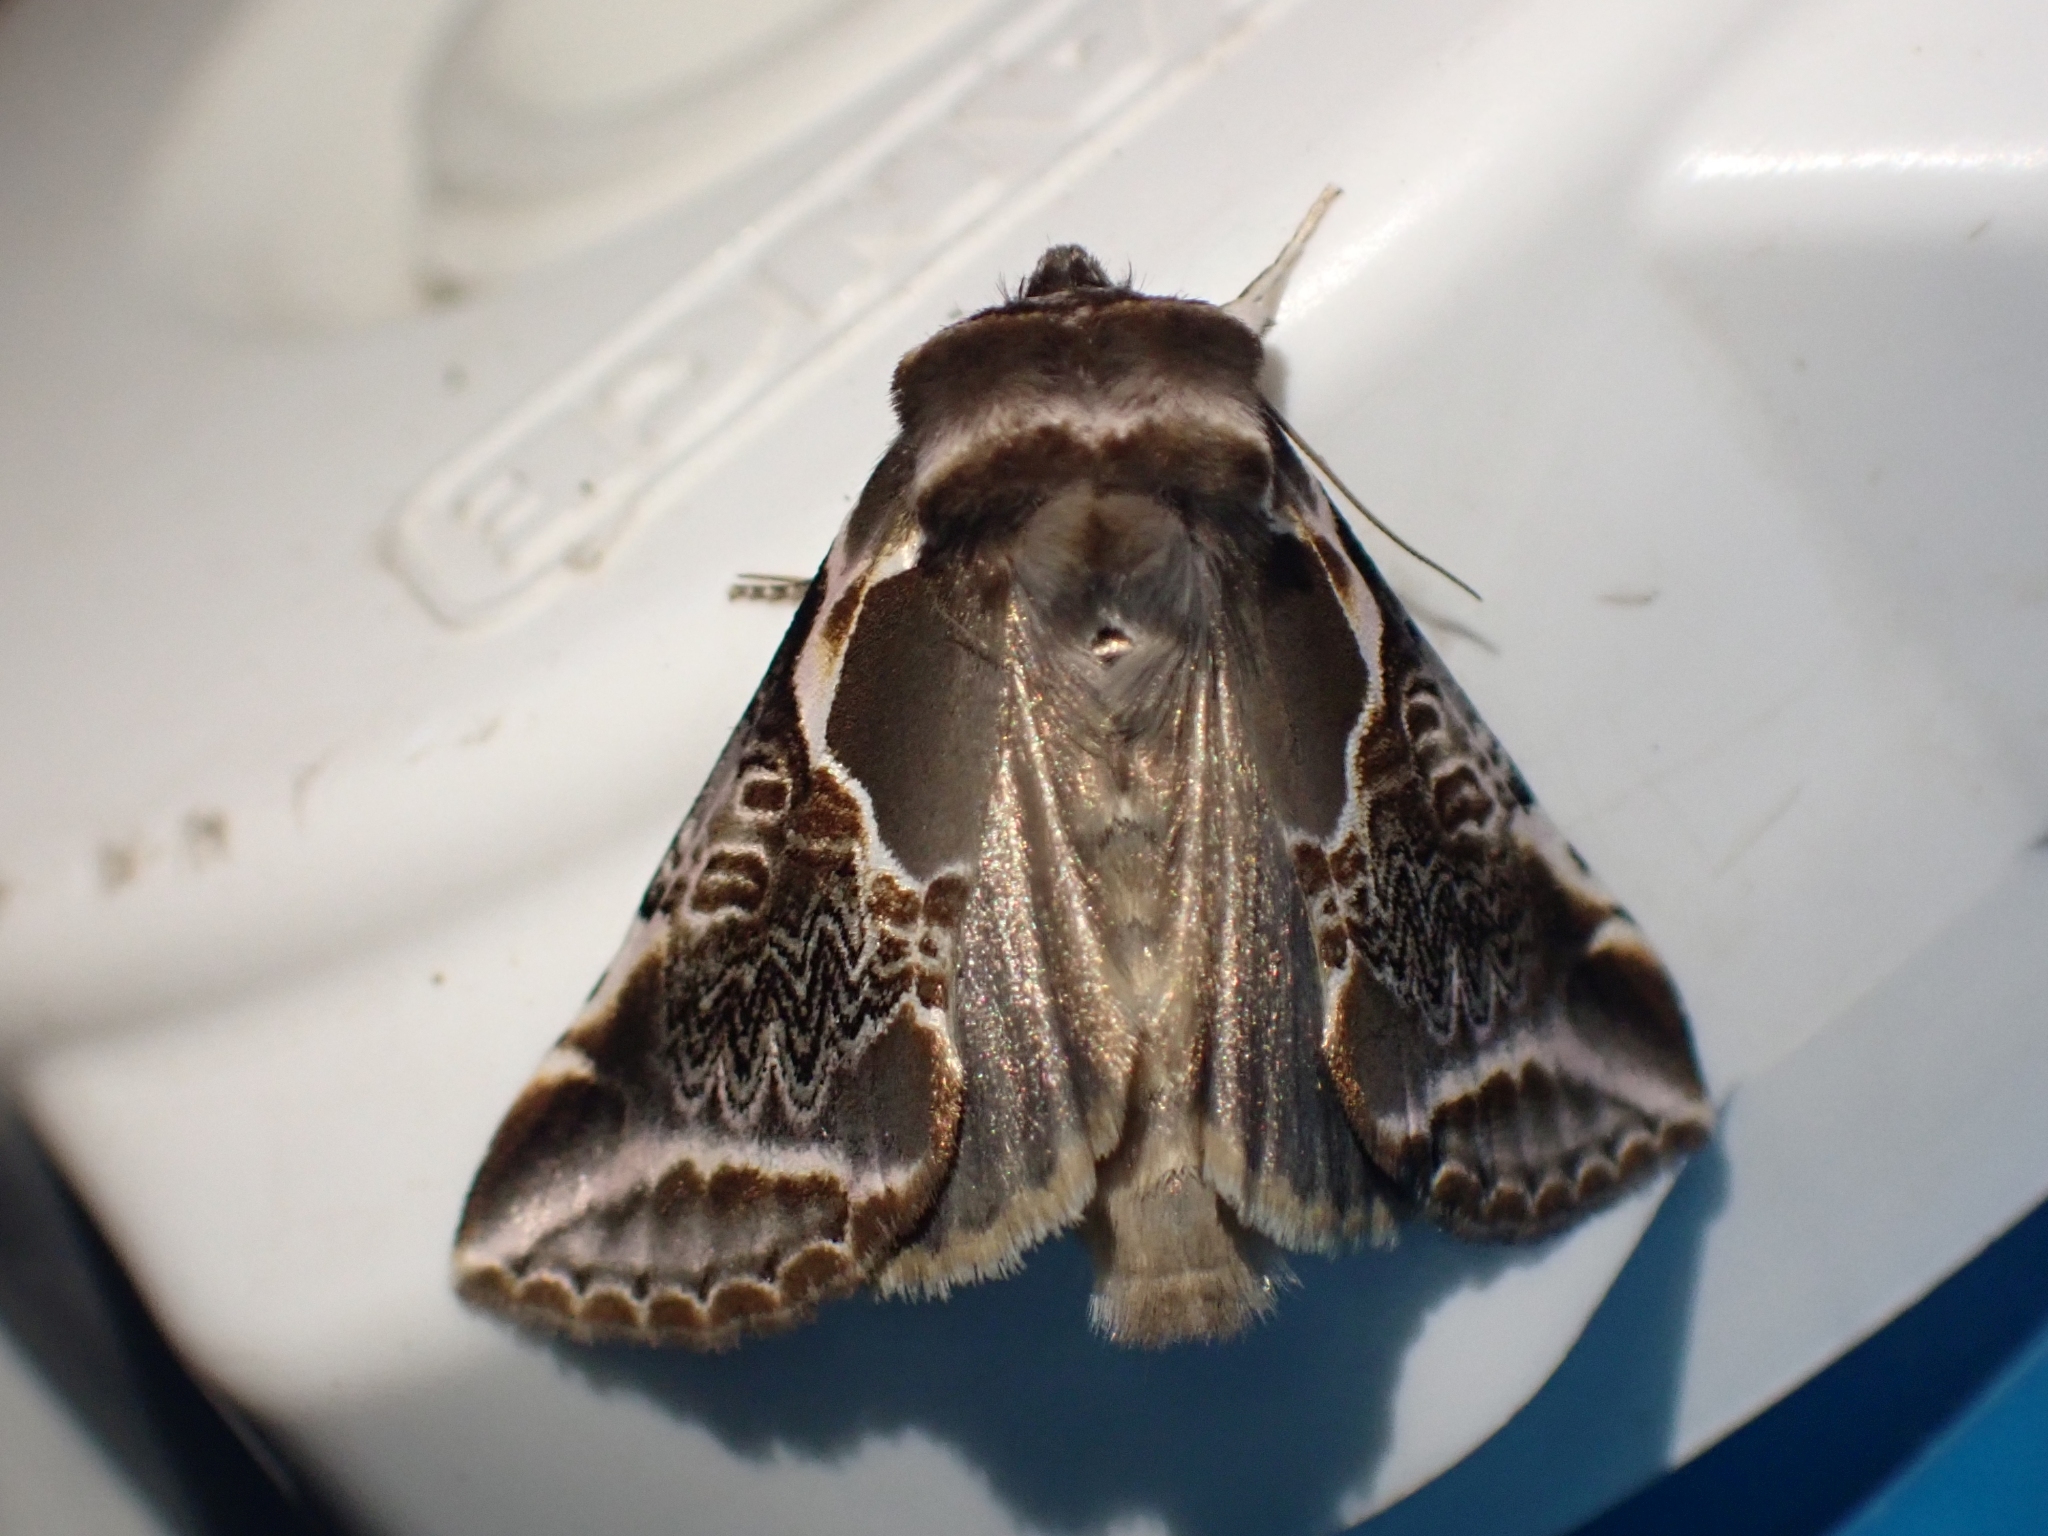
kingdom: Animalia
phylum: Arthropoda
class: Insecta
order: Lepidoptera
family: Drepanidae
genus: Habrosyne
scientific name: Habrosyne scripta
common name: Lettered habrosyne moth
